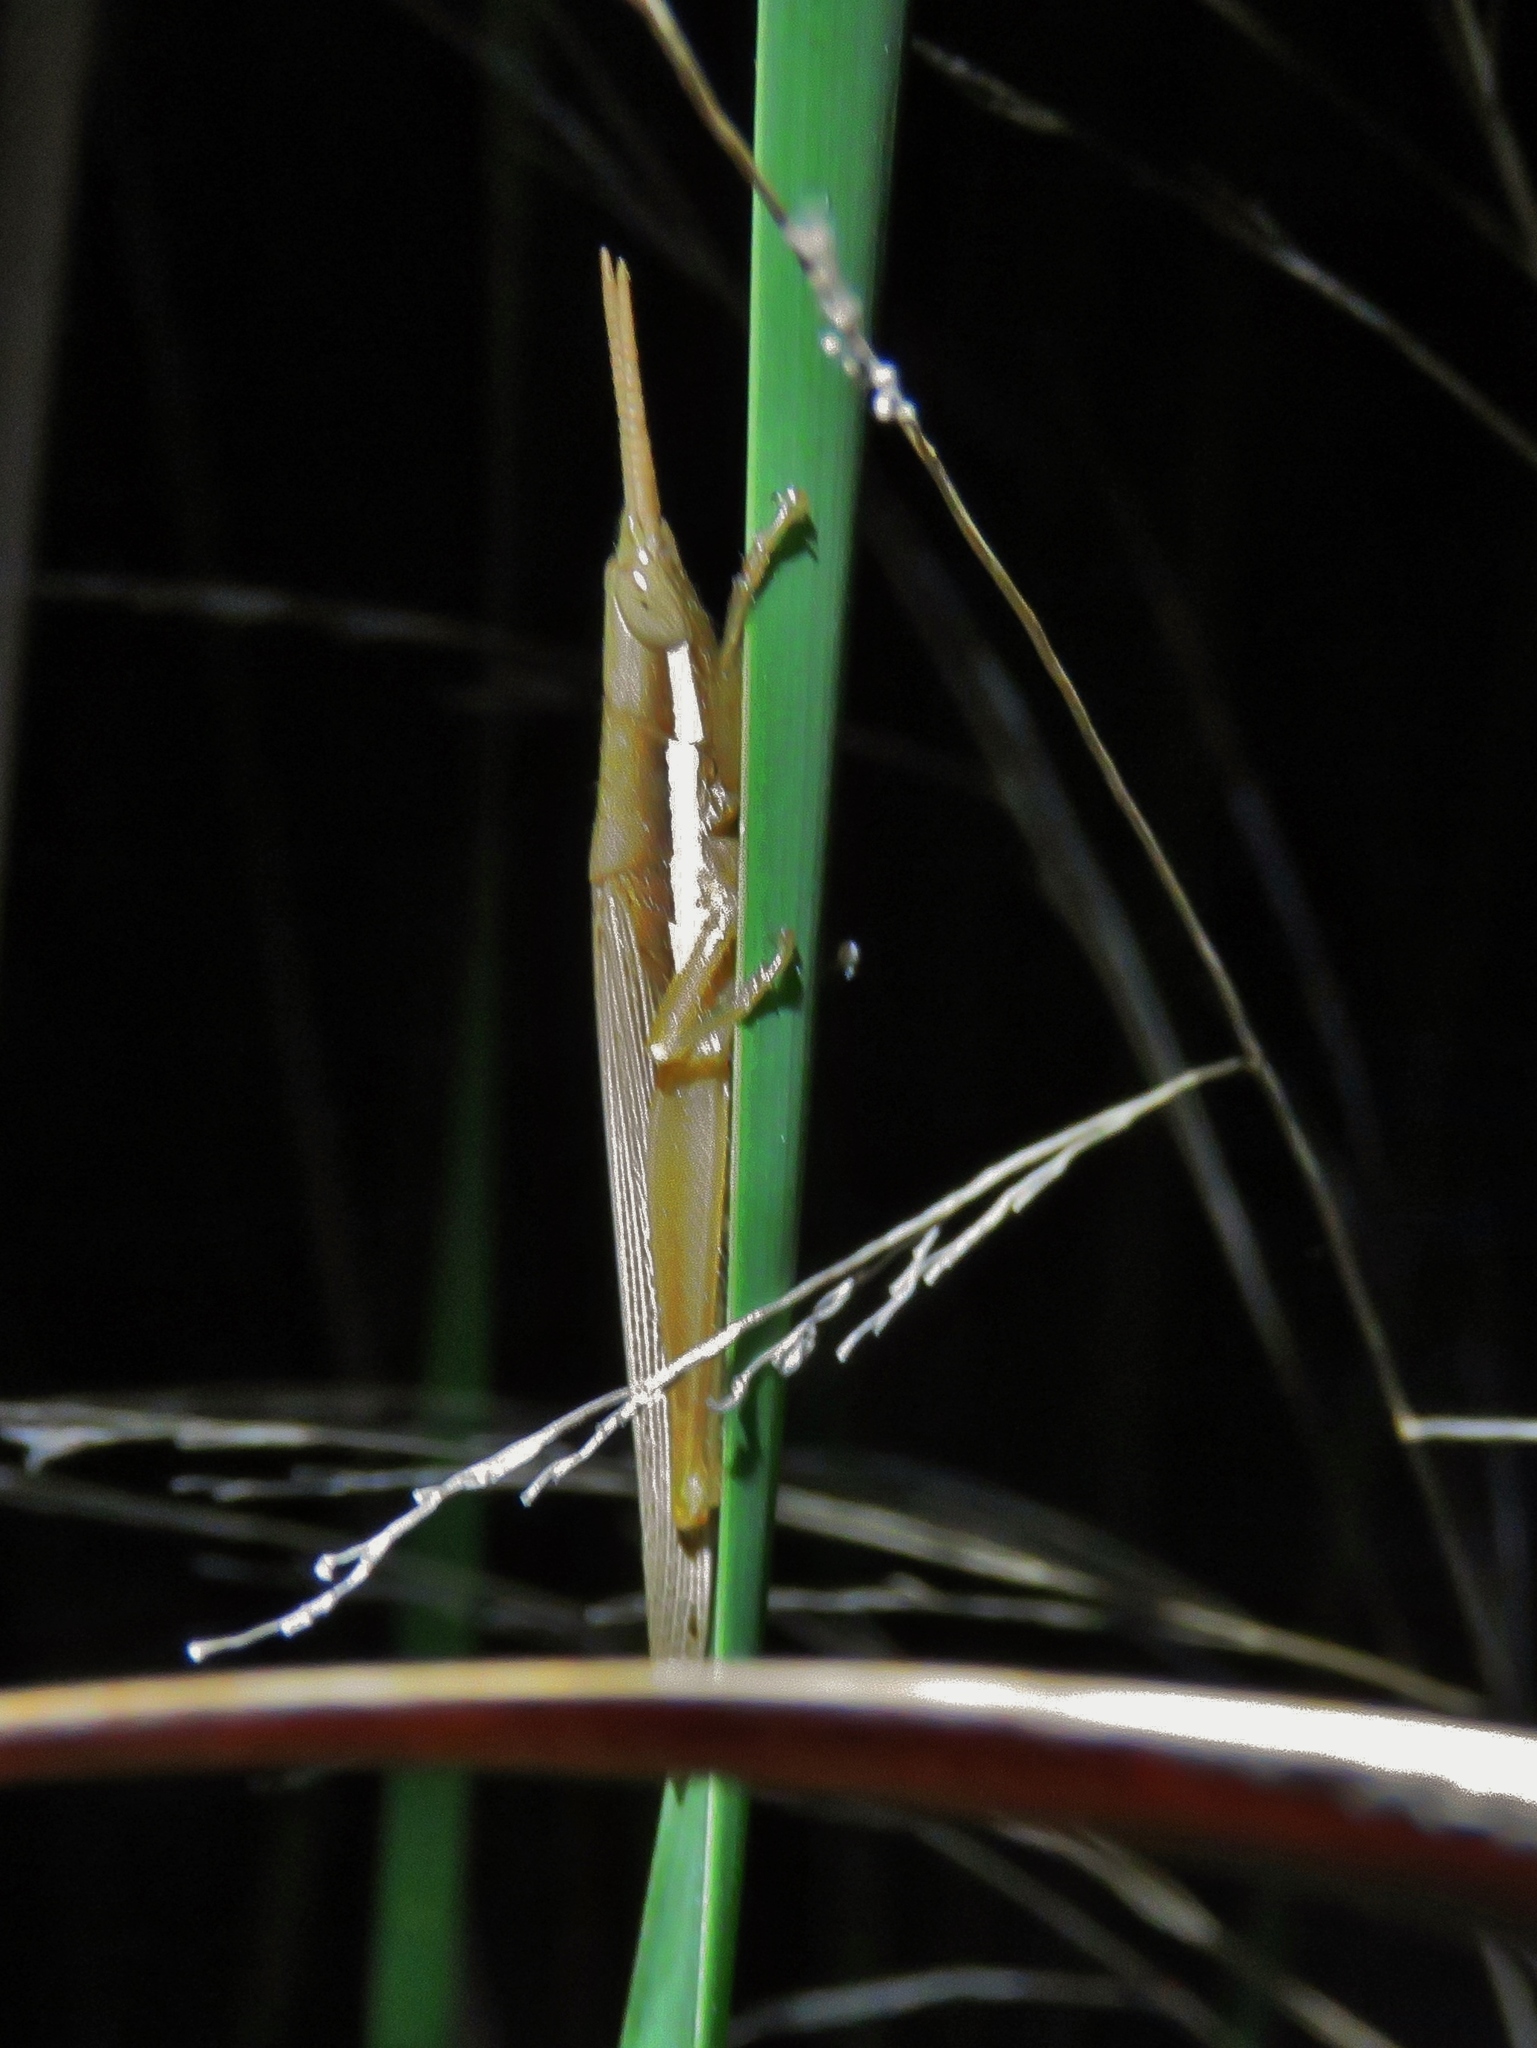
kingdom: Animalia
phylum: Arthropoda
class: Insecta
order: Orthoptera
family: Acrididae
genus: Leptysma
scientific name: Leptysma marginicollis
